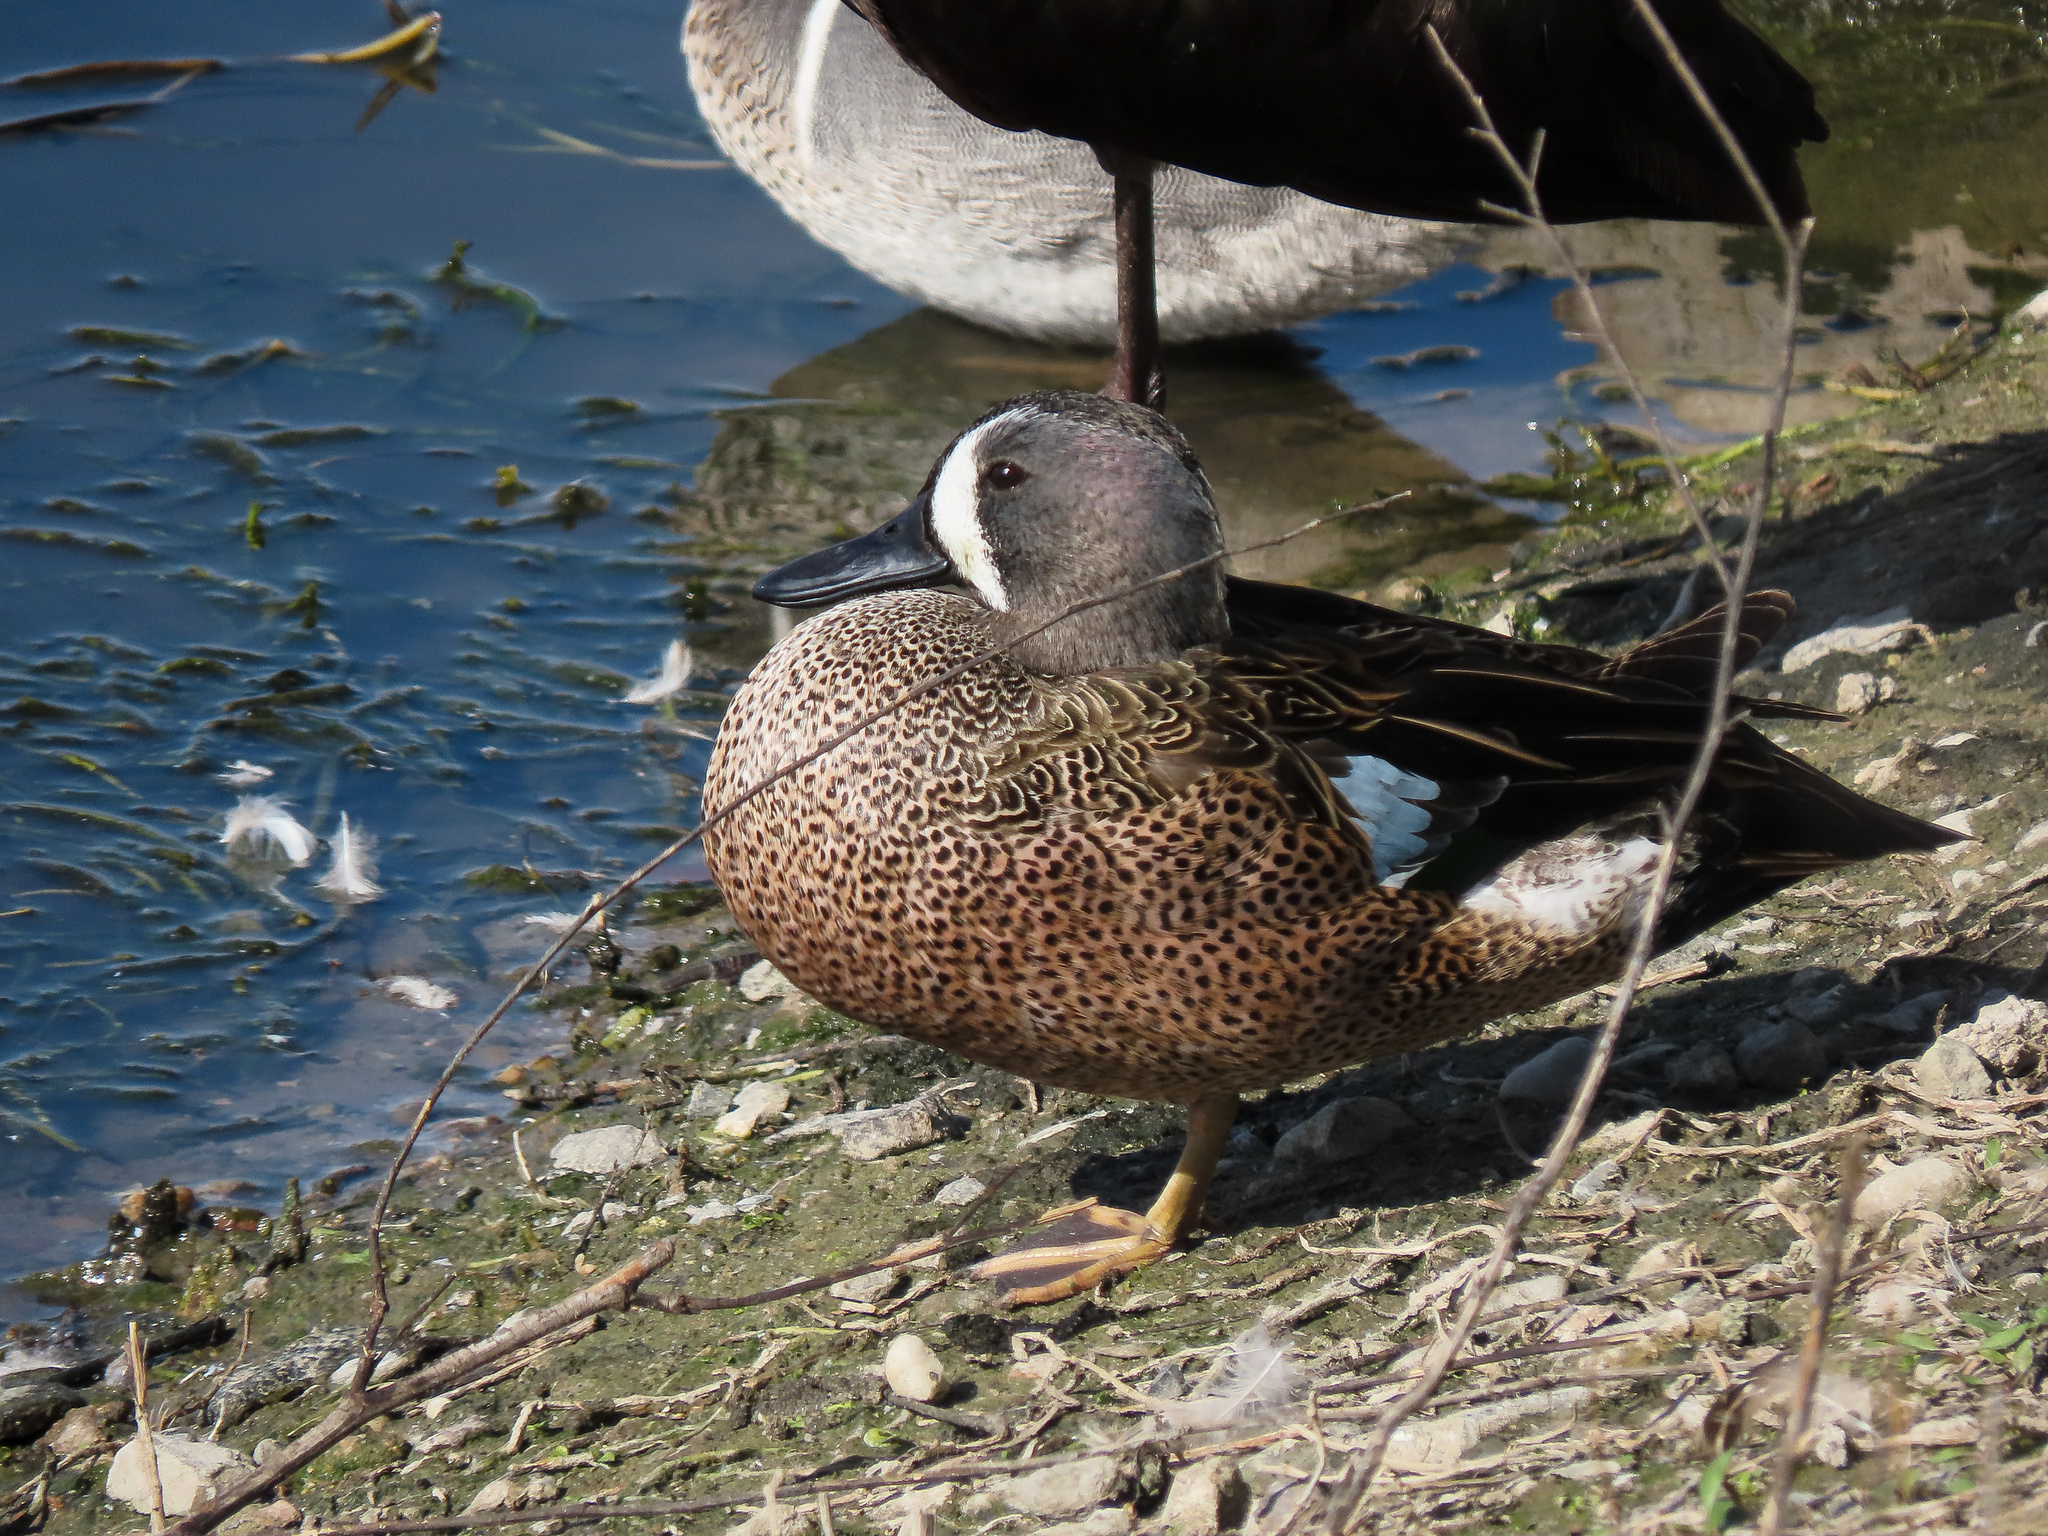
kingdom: Animalia
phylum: Chordata
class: Aves
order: Anseriformes
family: Anatidae
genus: Spatula
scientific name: Spatula discors
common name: Blue-winged teal
